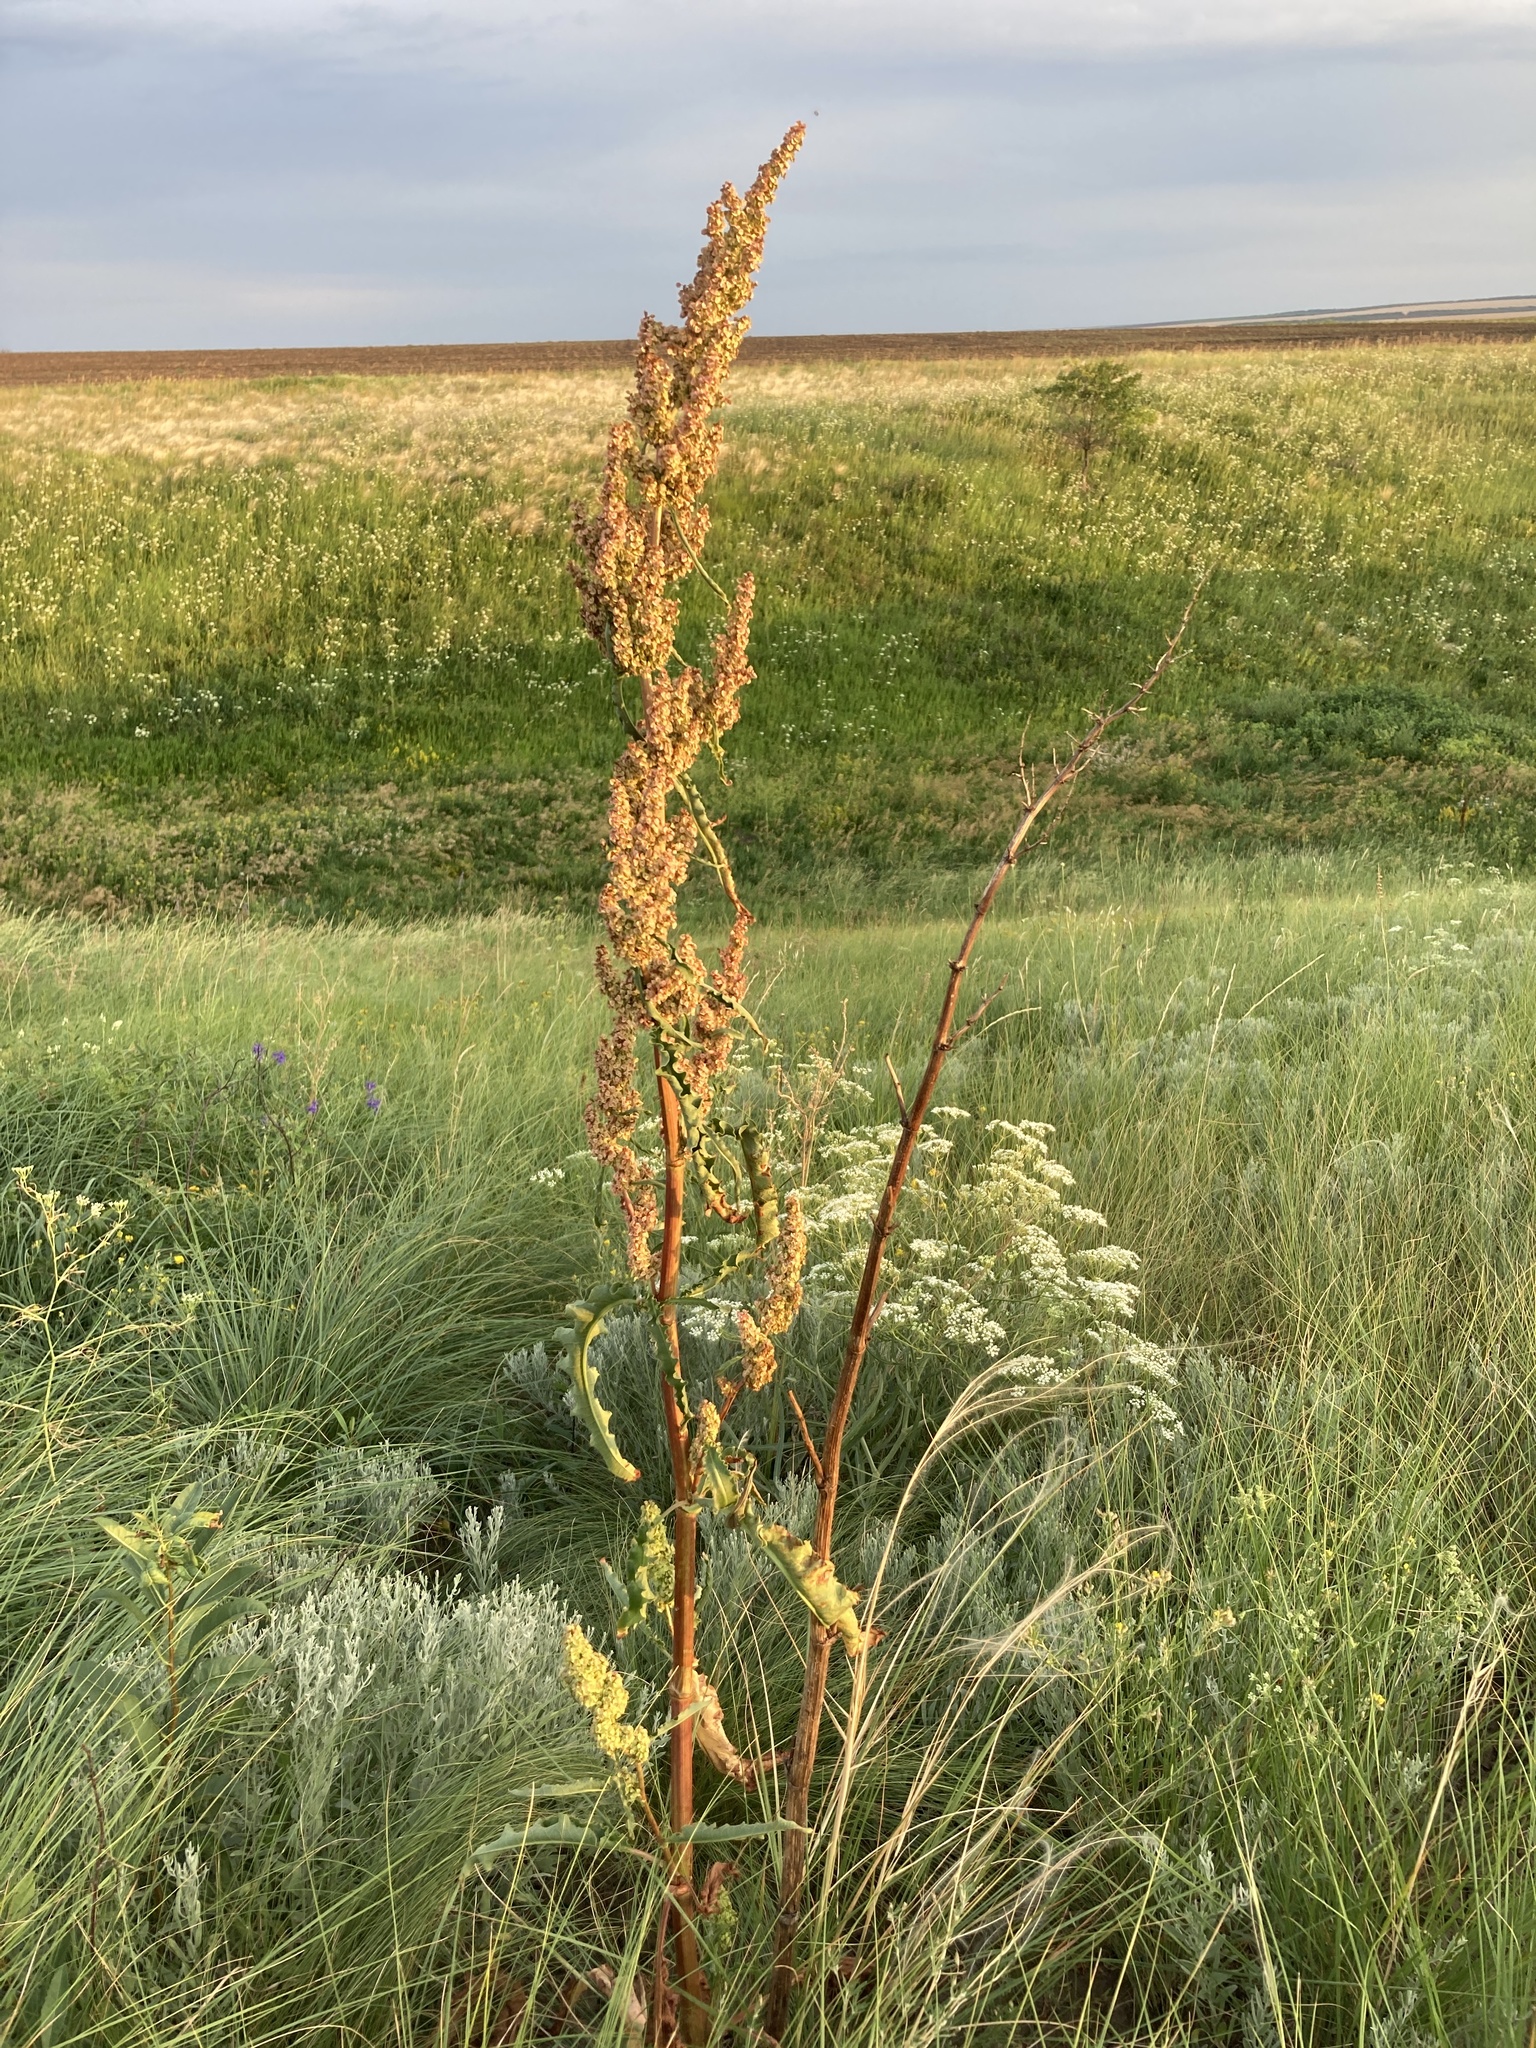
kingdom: Plantae
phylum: Tracheophyta
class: Magnoliopsida
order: Caryophyllales
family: Polygonaceae
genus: Rumex
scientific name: Rumex crispus
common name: Curled dock
